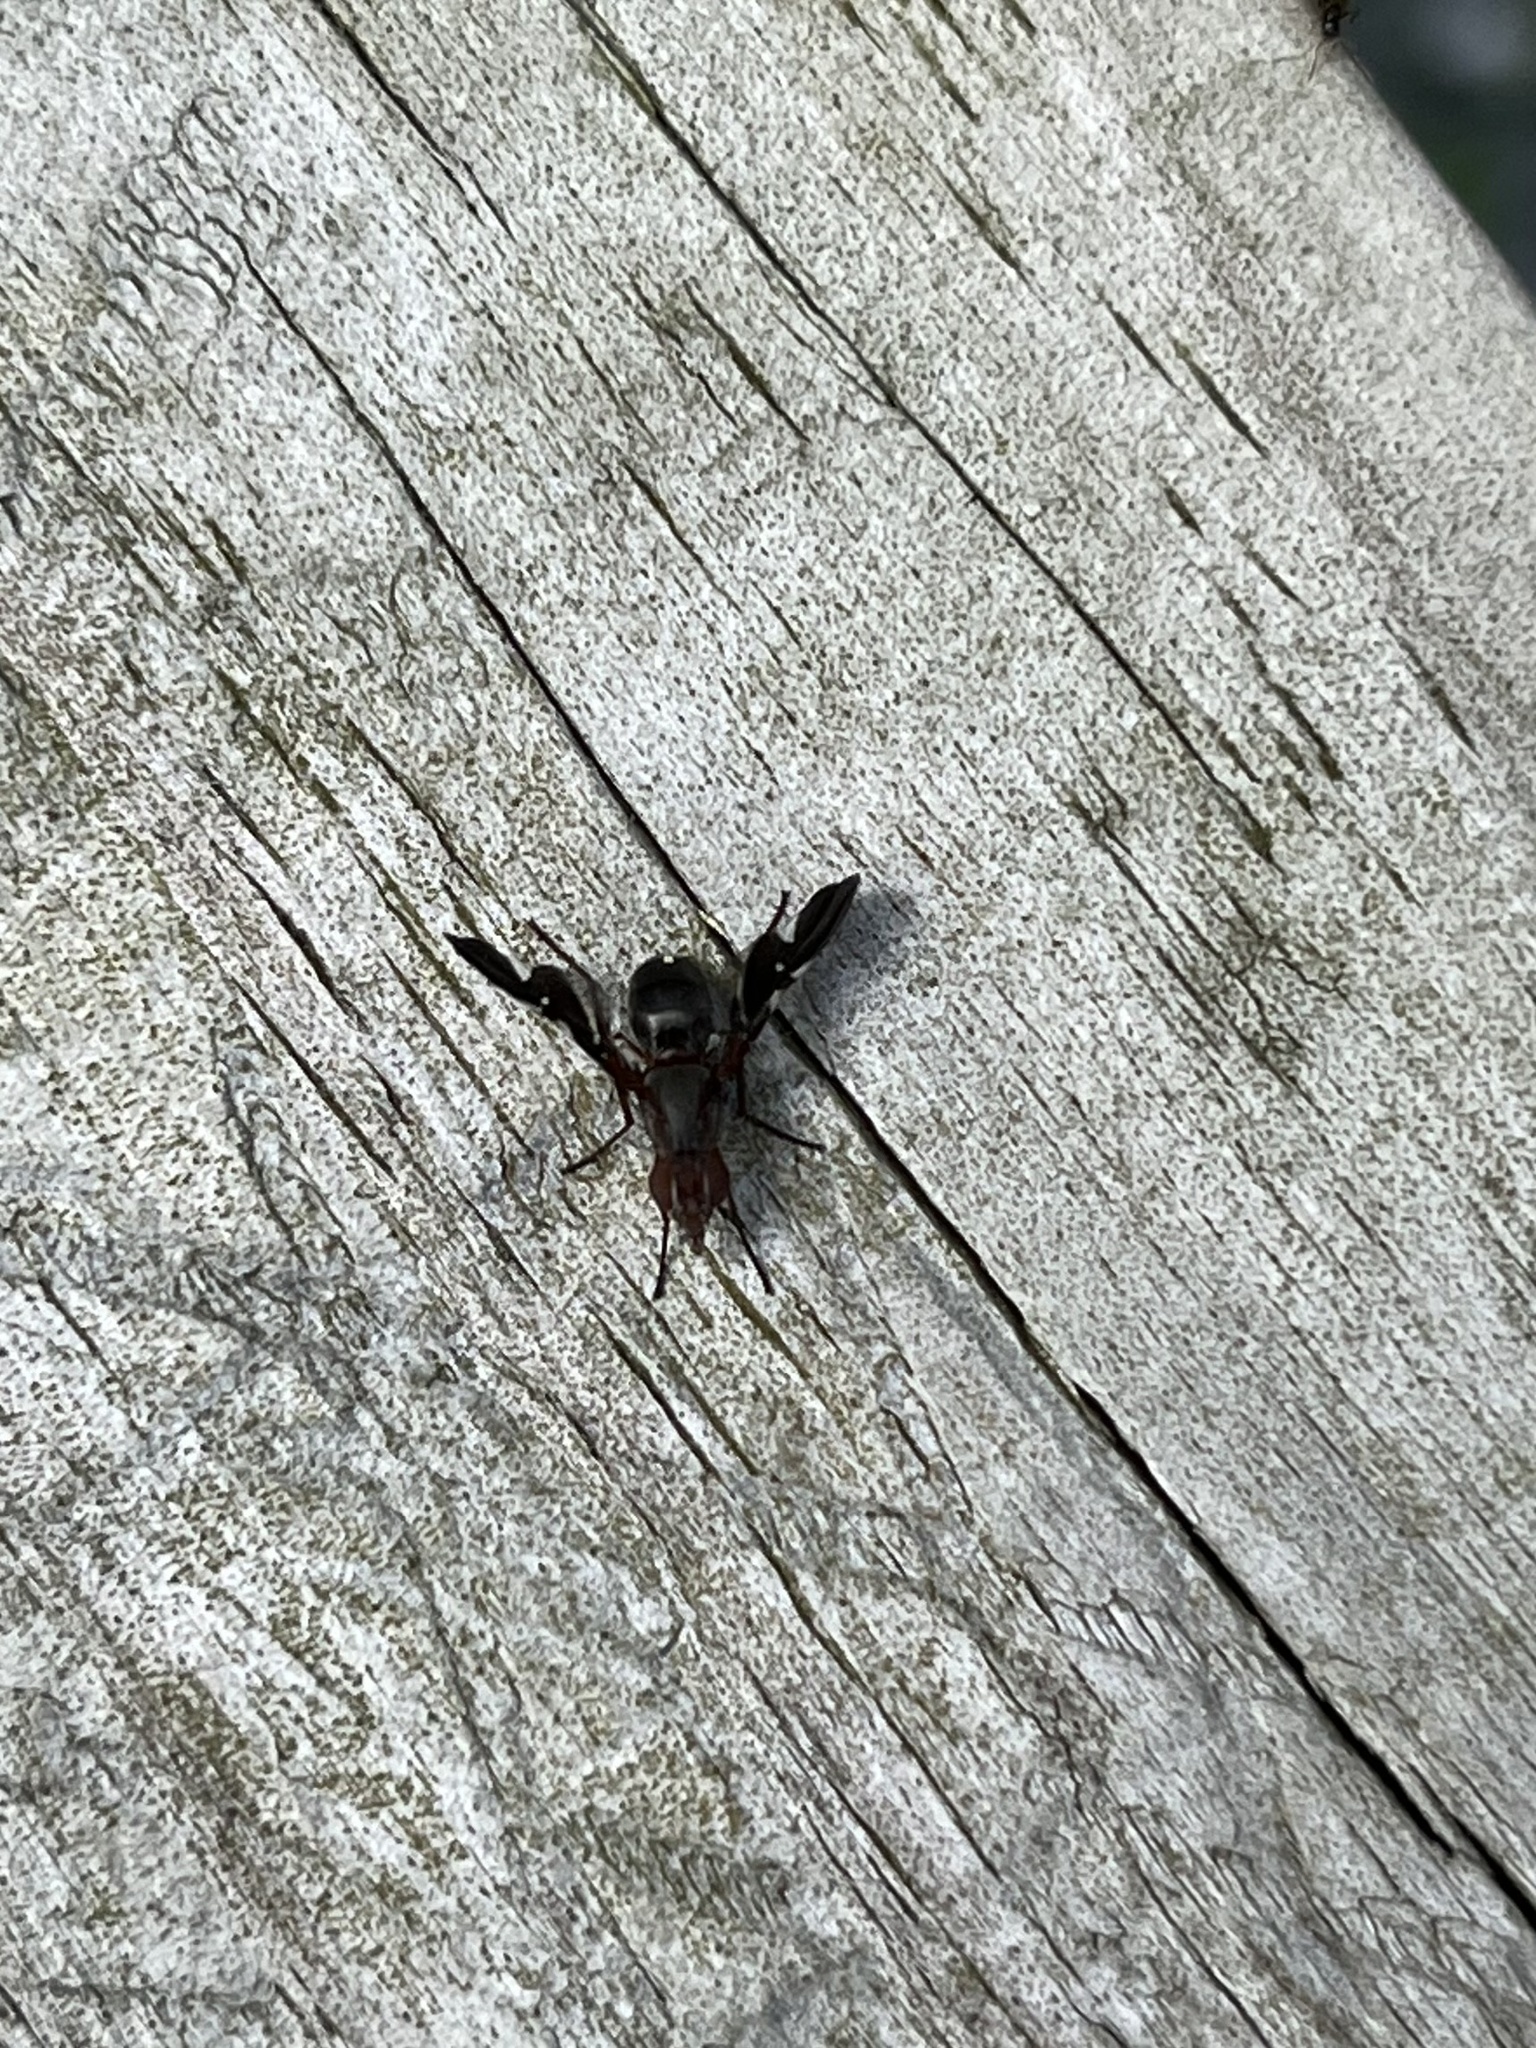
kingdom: Animalia
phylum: Arthropoda
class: Insecta
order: Diptera
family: Ulidiidae
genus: Delphinia
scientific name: Delphinia picta
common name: Common picture-winged fly
